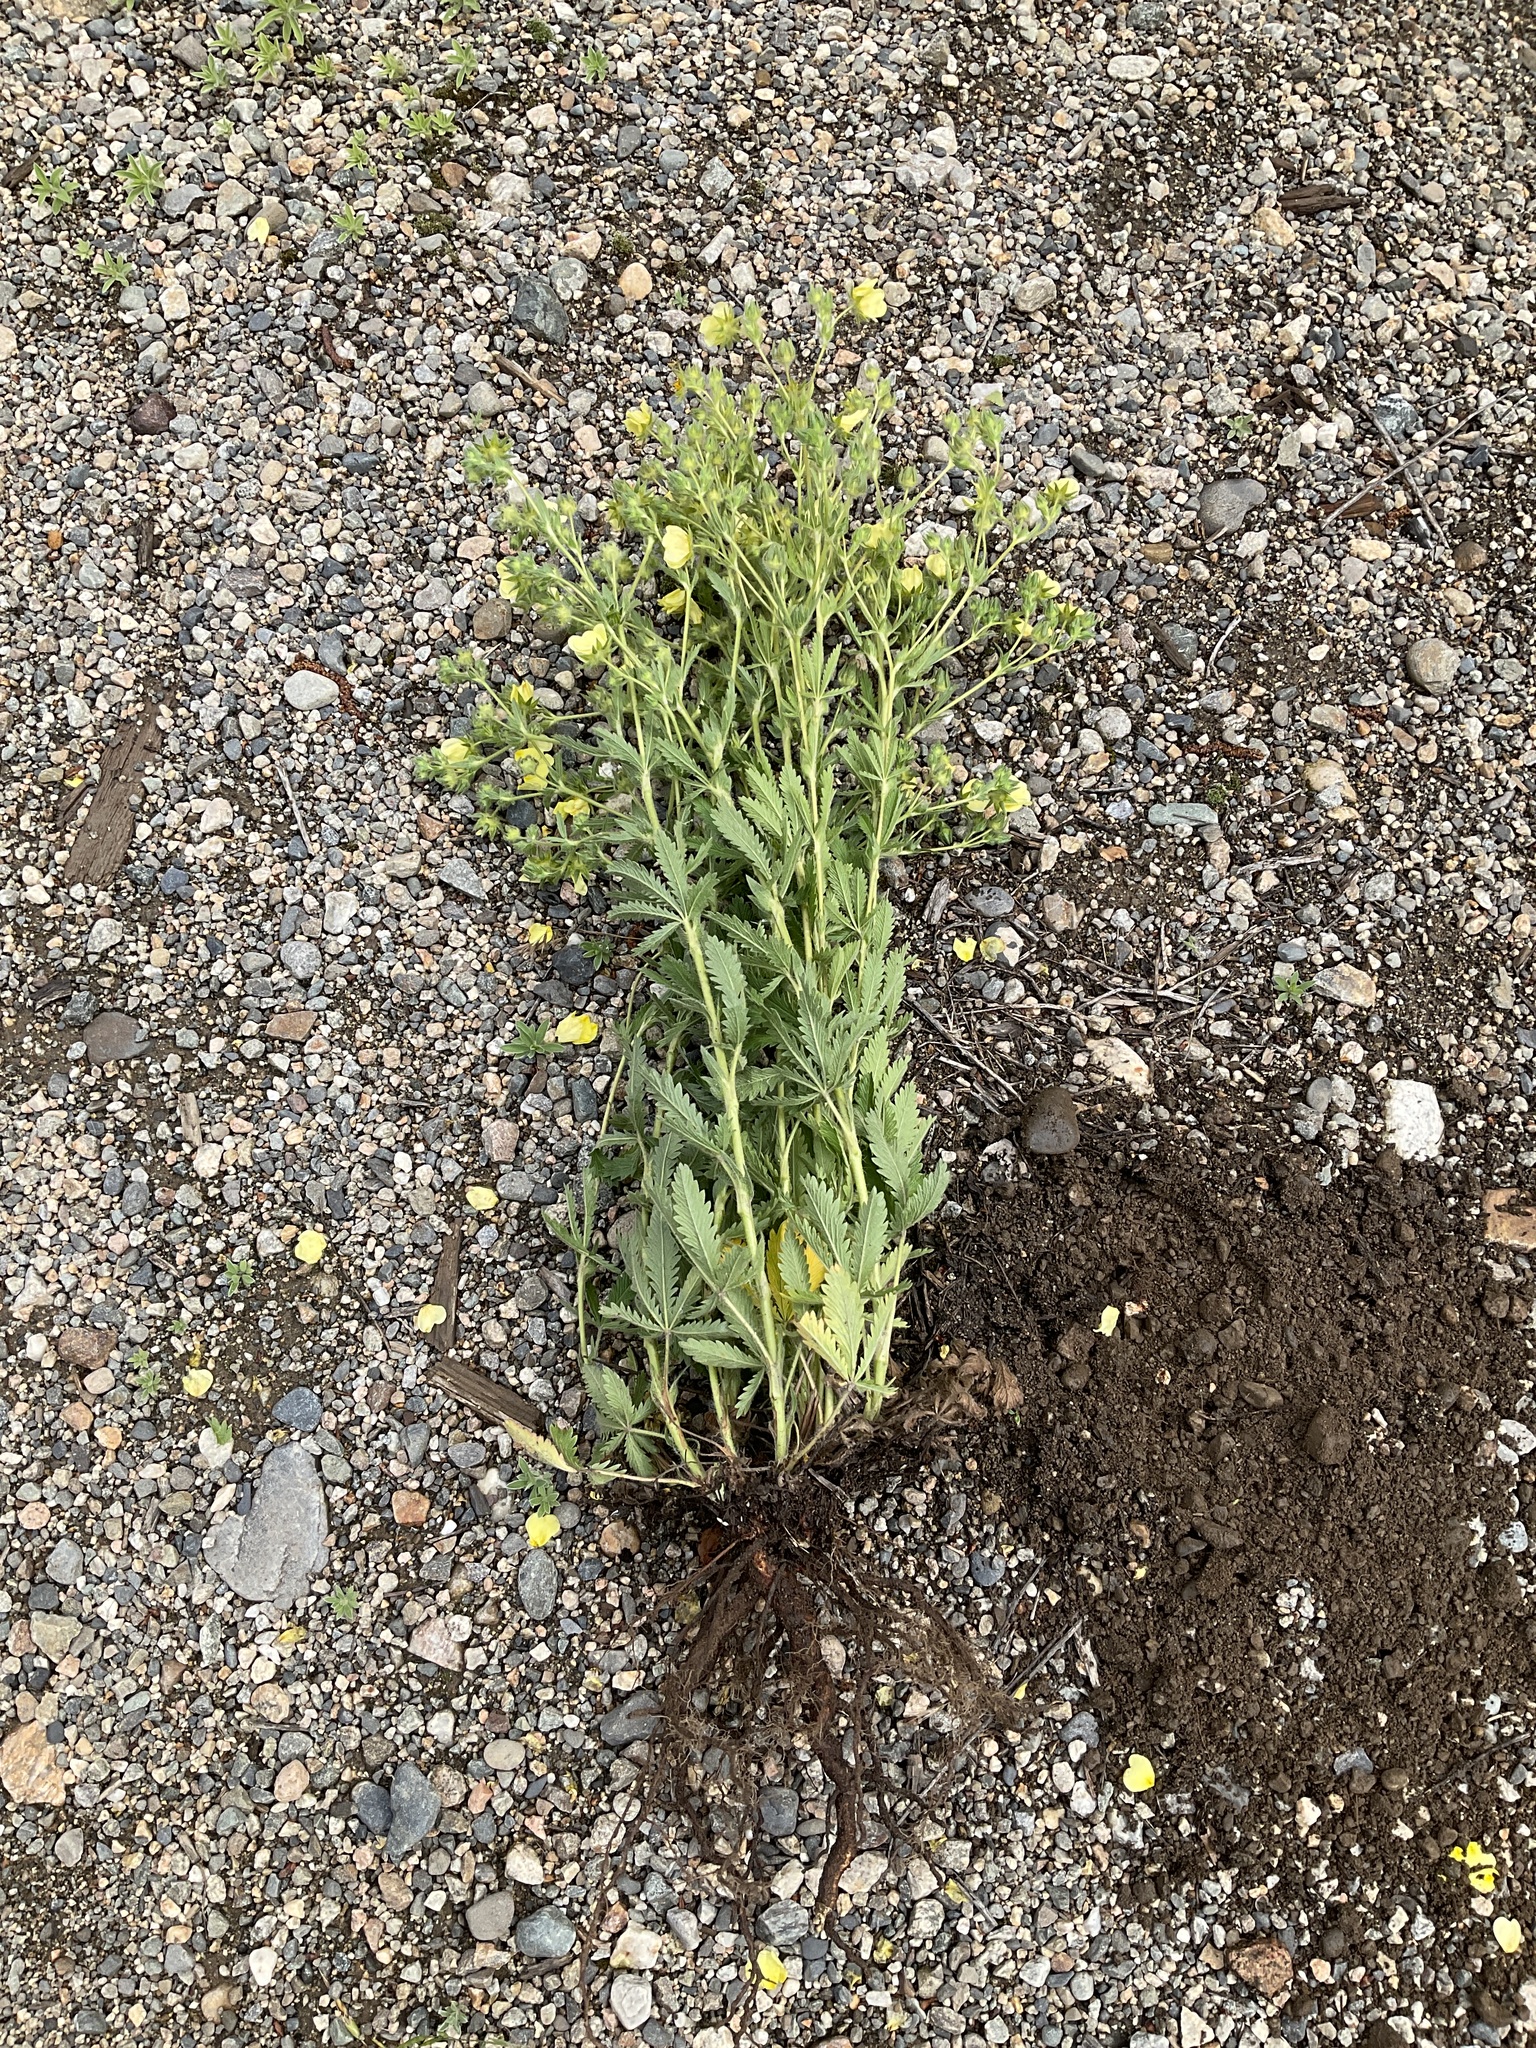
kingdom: Plantae
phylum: Tracheophyta
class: Magnoliopsida
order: Rosales
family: Rosaceae
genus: Potentilla
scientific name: Potentilla recta
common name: Sulphur cinquefoil
